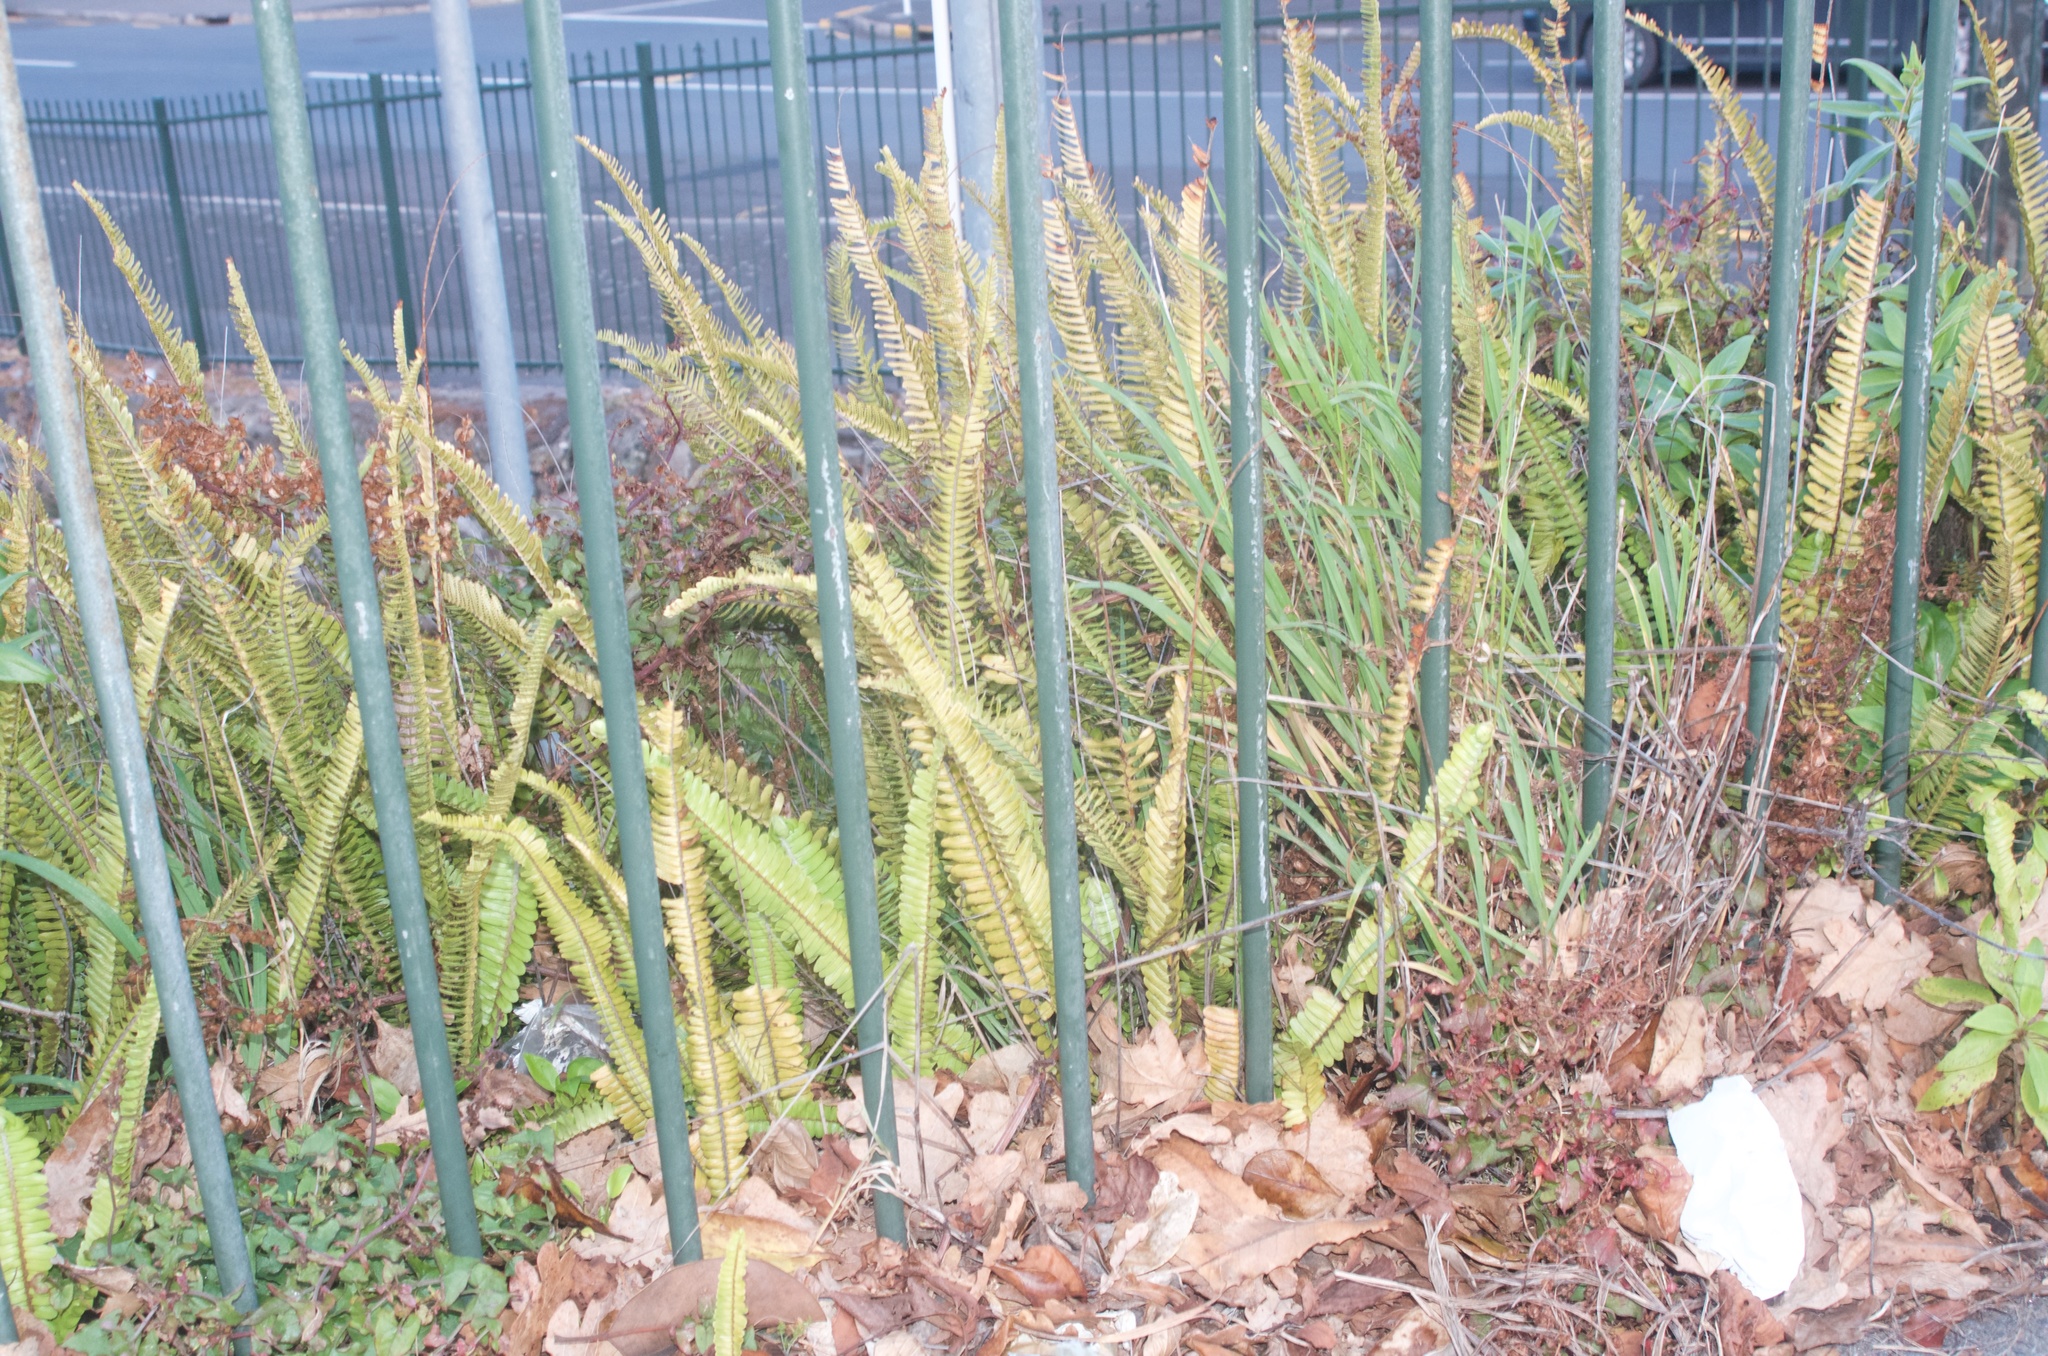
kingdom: Plantae
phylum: Tracheophyta
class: Polypodiopsida
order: Polypodiales
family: Nephrolepidaceae
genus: Nephrolepis
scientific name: Nephrolepis cordifolia
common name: Narrow swordfern
